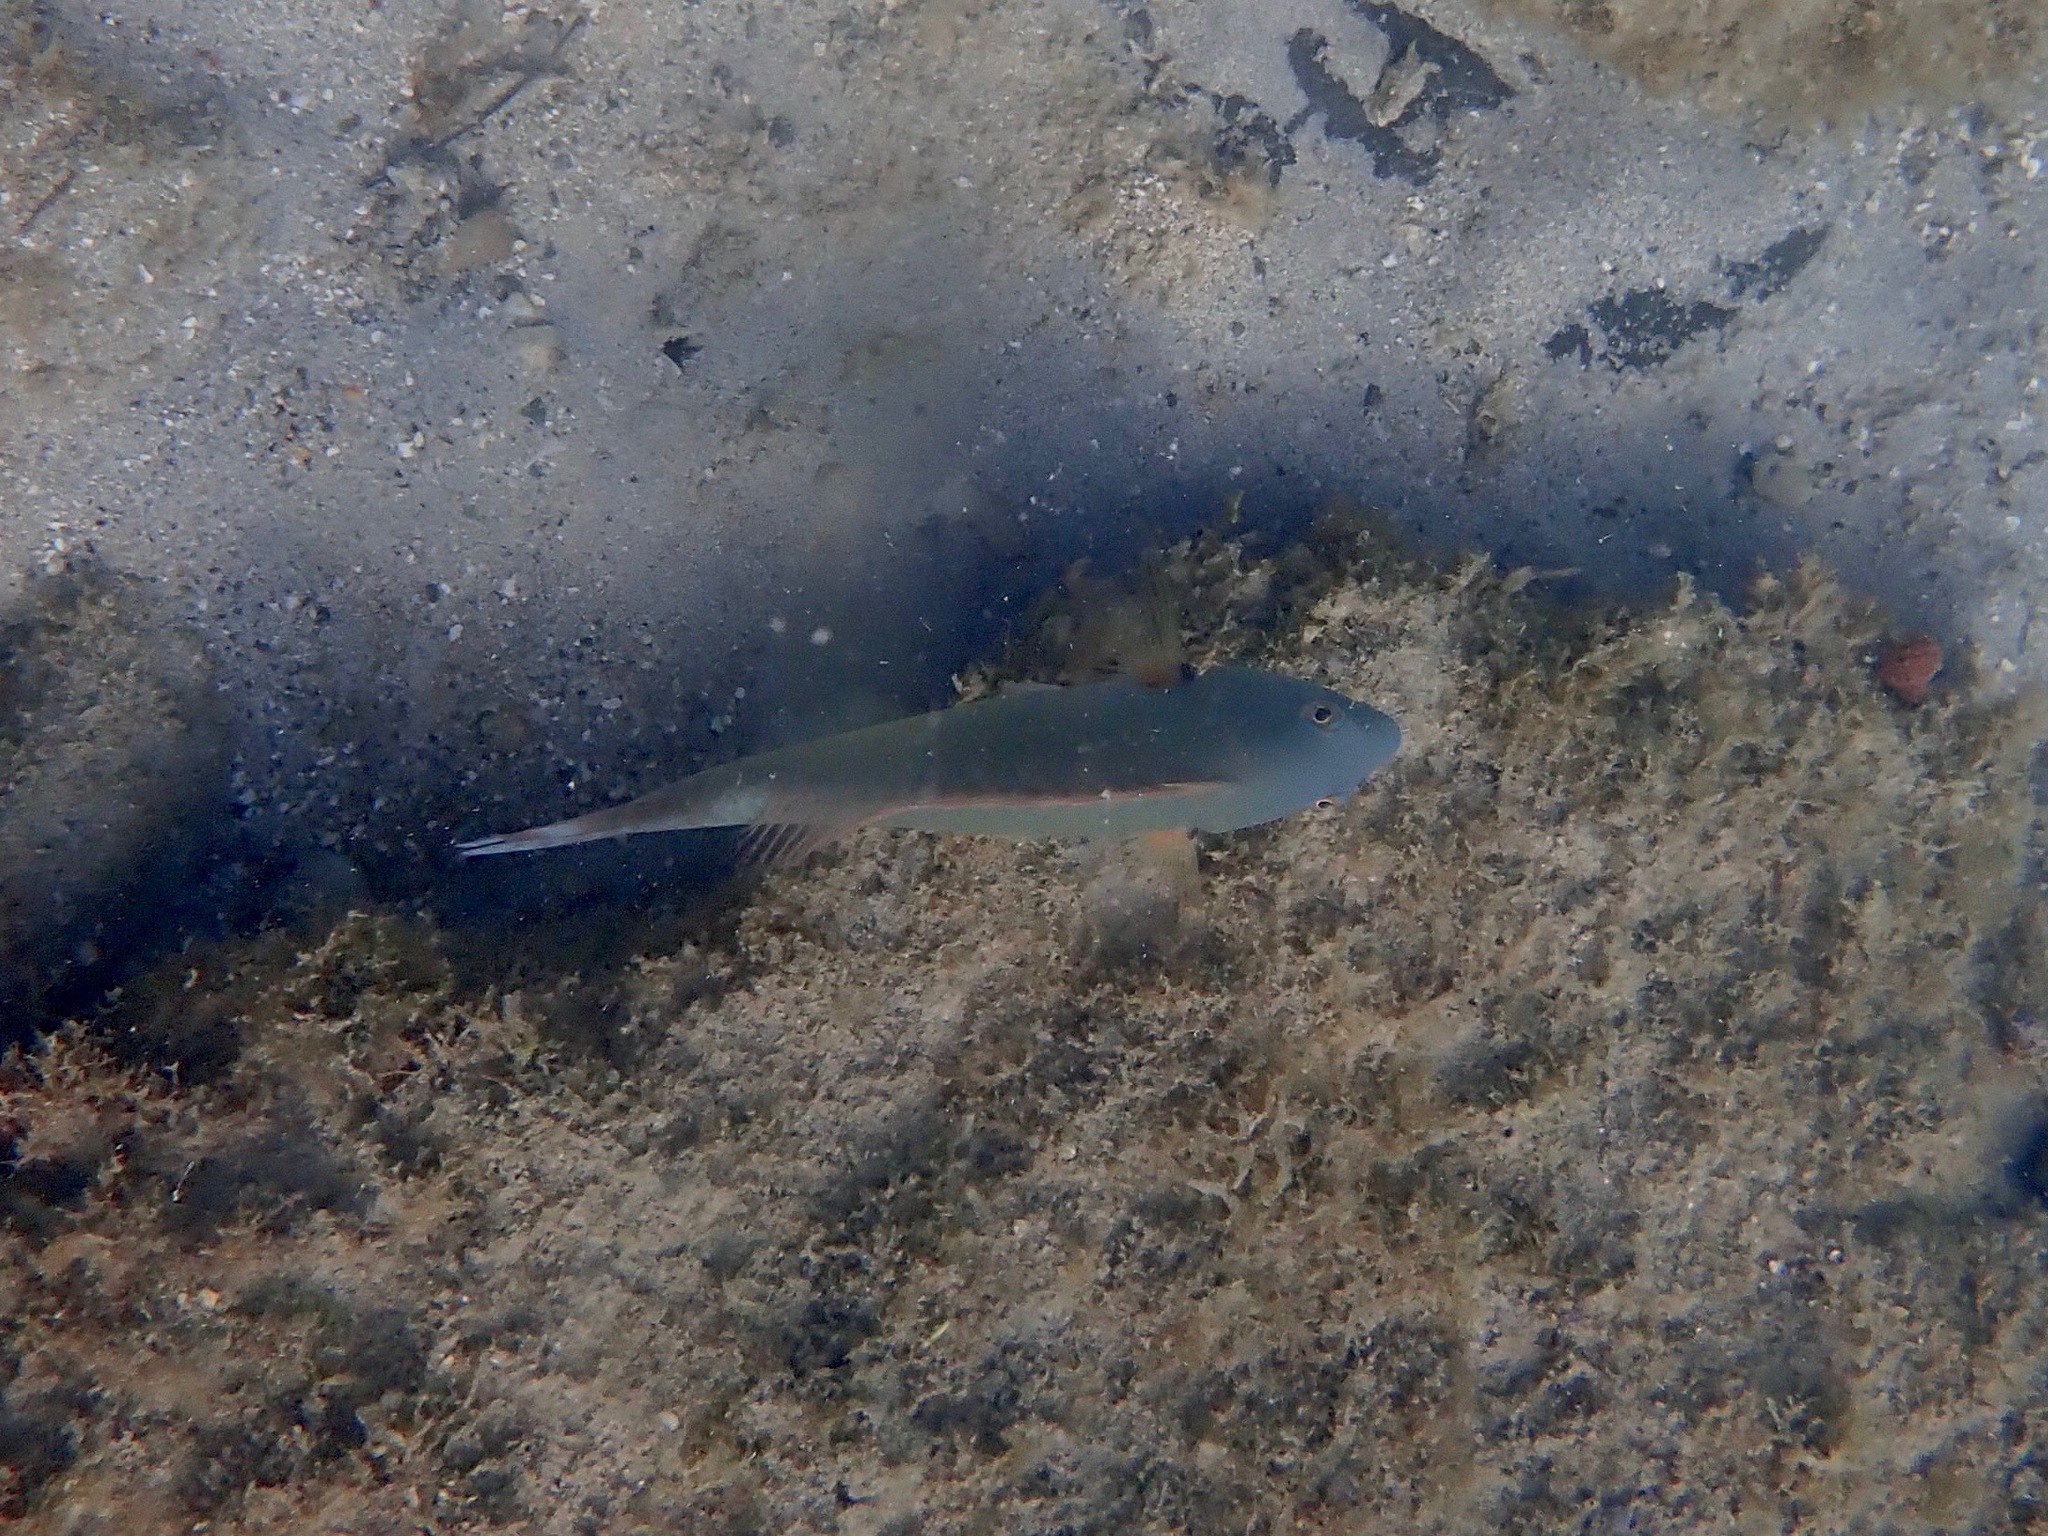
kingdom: Animalia
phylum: Chordata
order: Perciformes
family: Scaridae
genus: Sparisoma
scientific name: Sparisoma chrysopterum
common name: Redtail parrotfish
